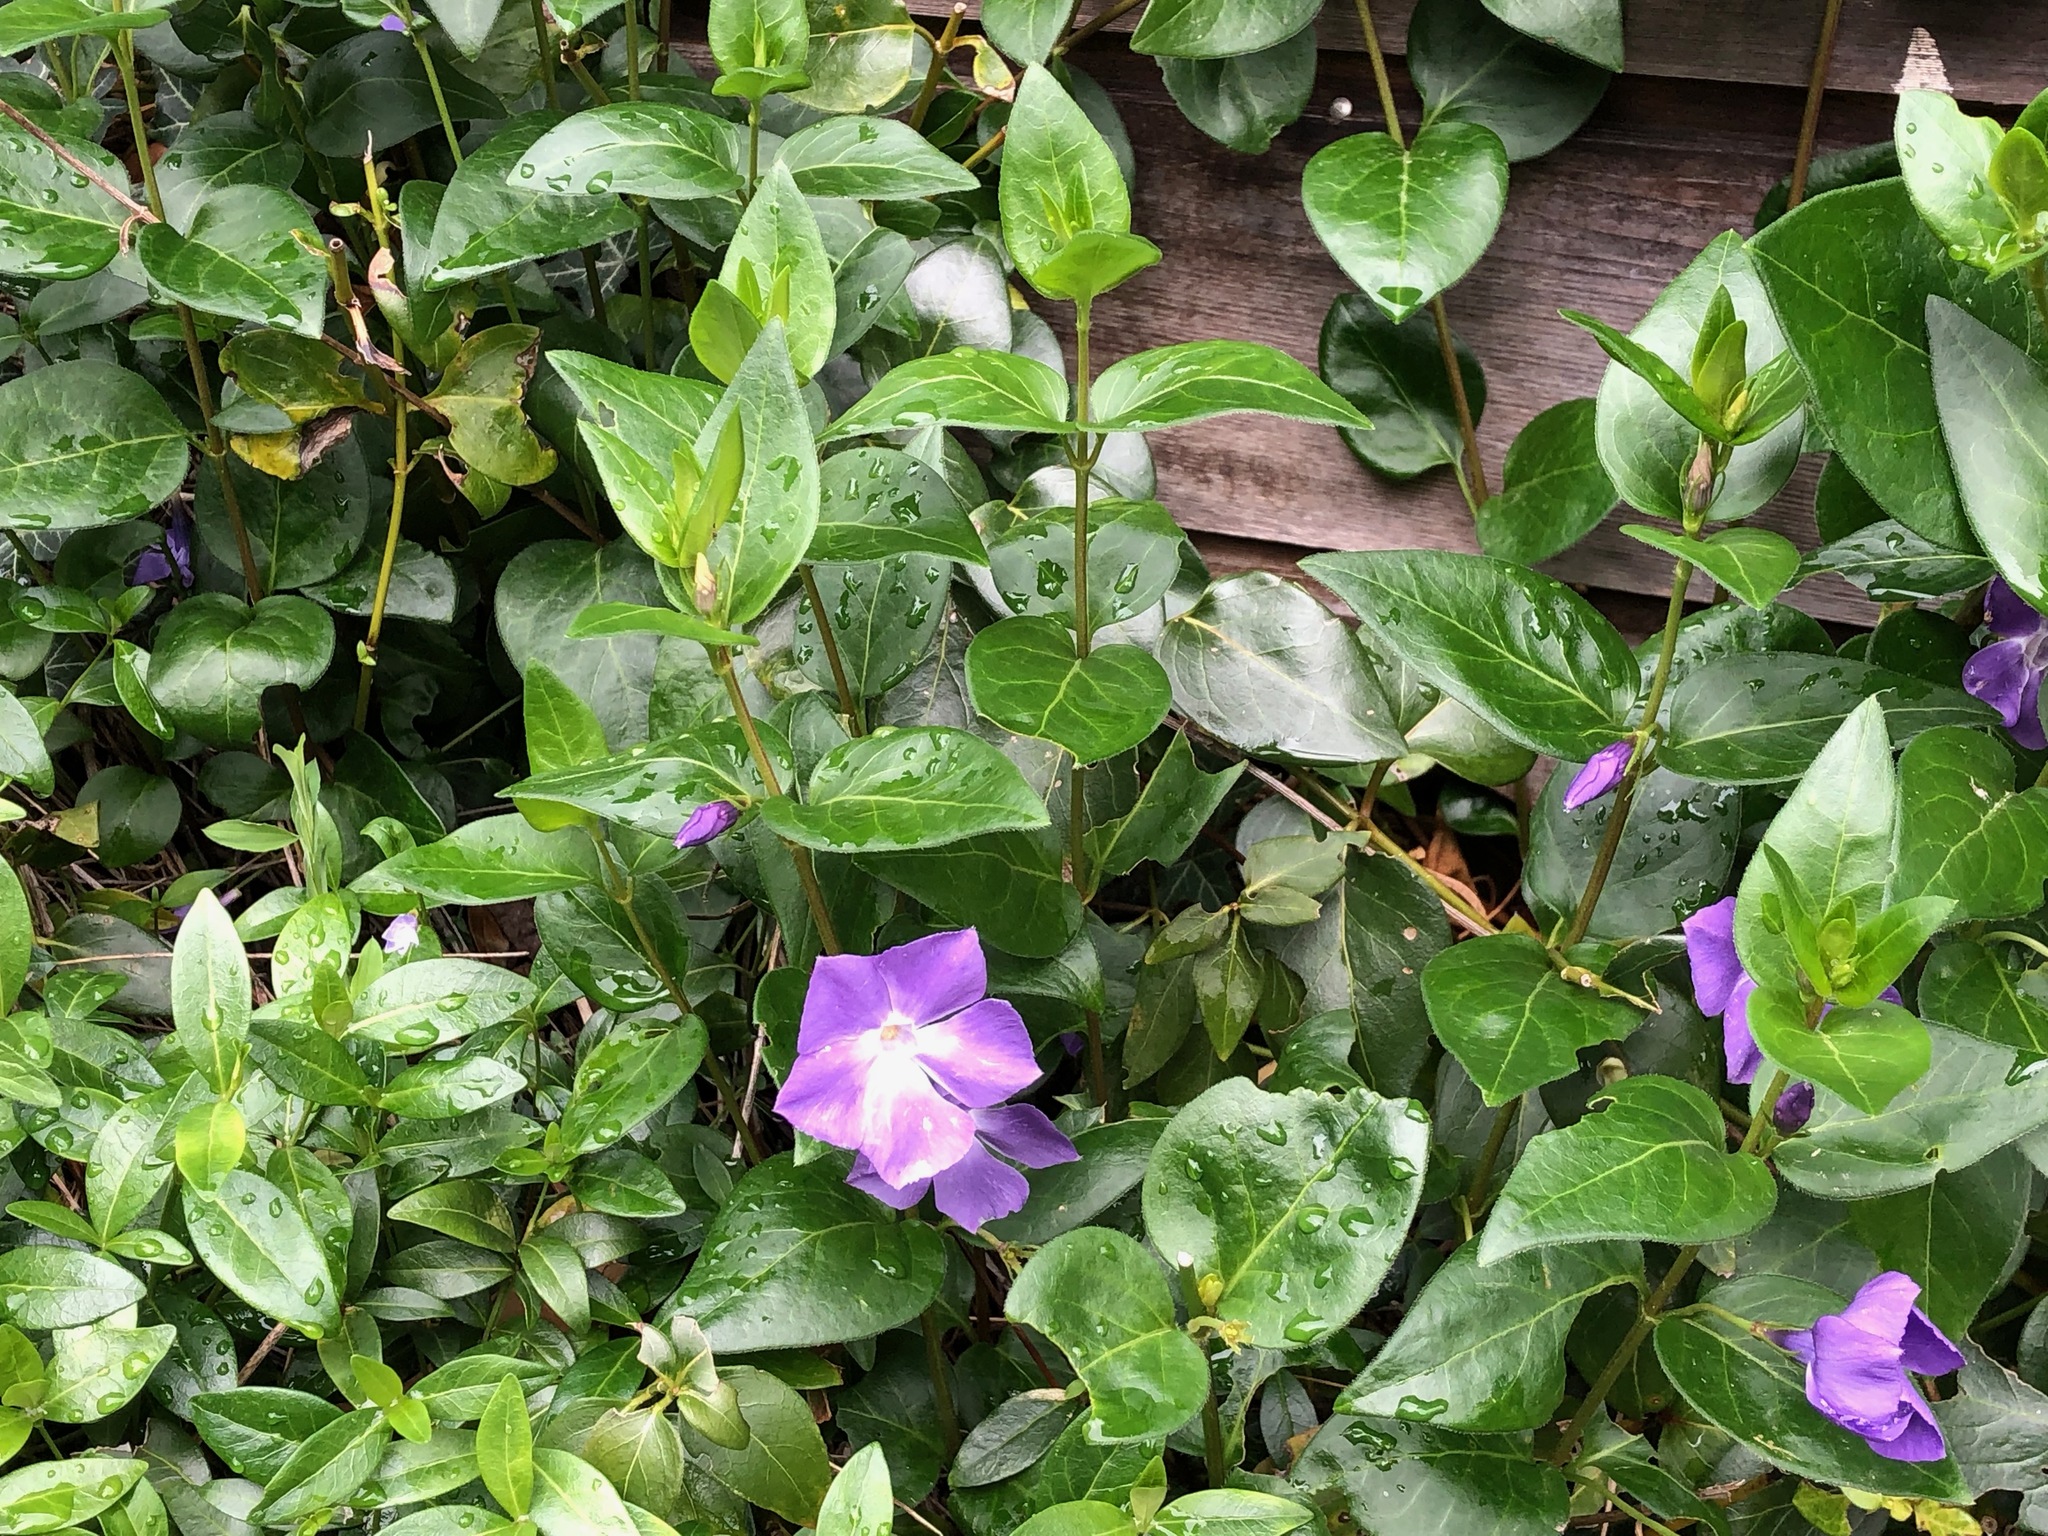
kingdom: Plantae
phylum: Tracheophyta
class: Magnoliopsida
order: Gentianales
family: Apocynaceae
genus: Vinca
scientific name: Vinca major
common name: Greater periwinkle
